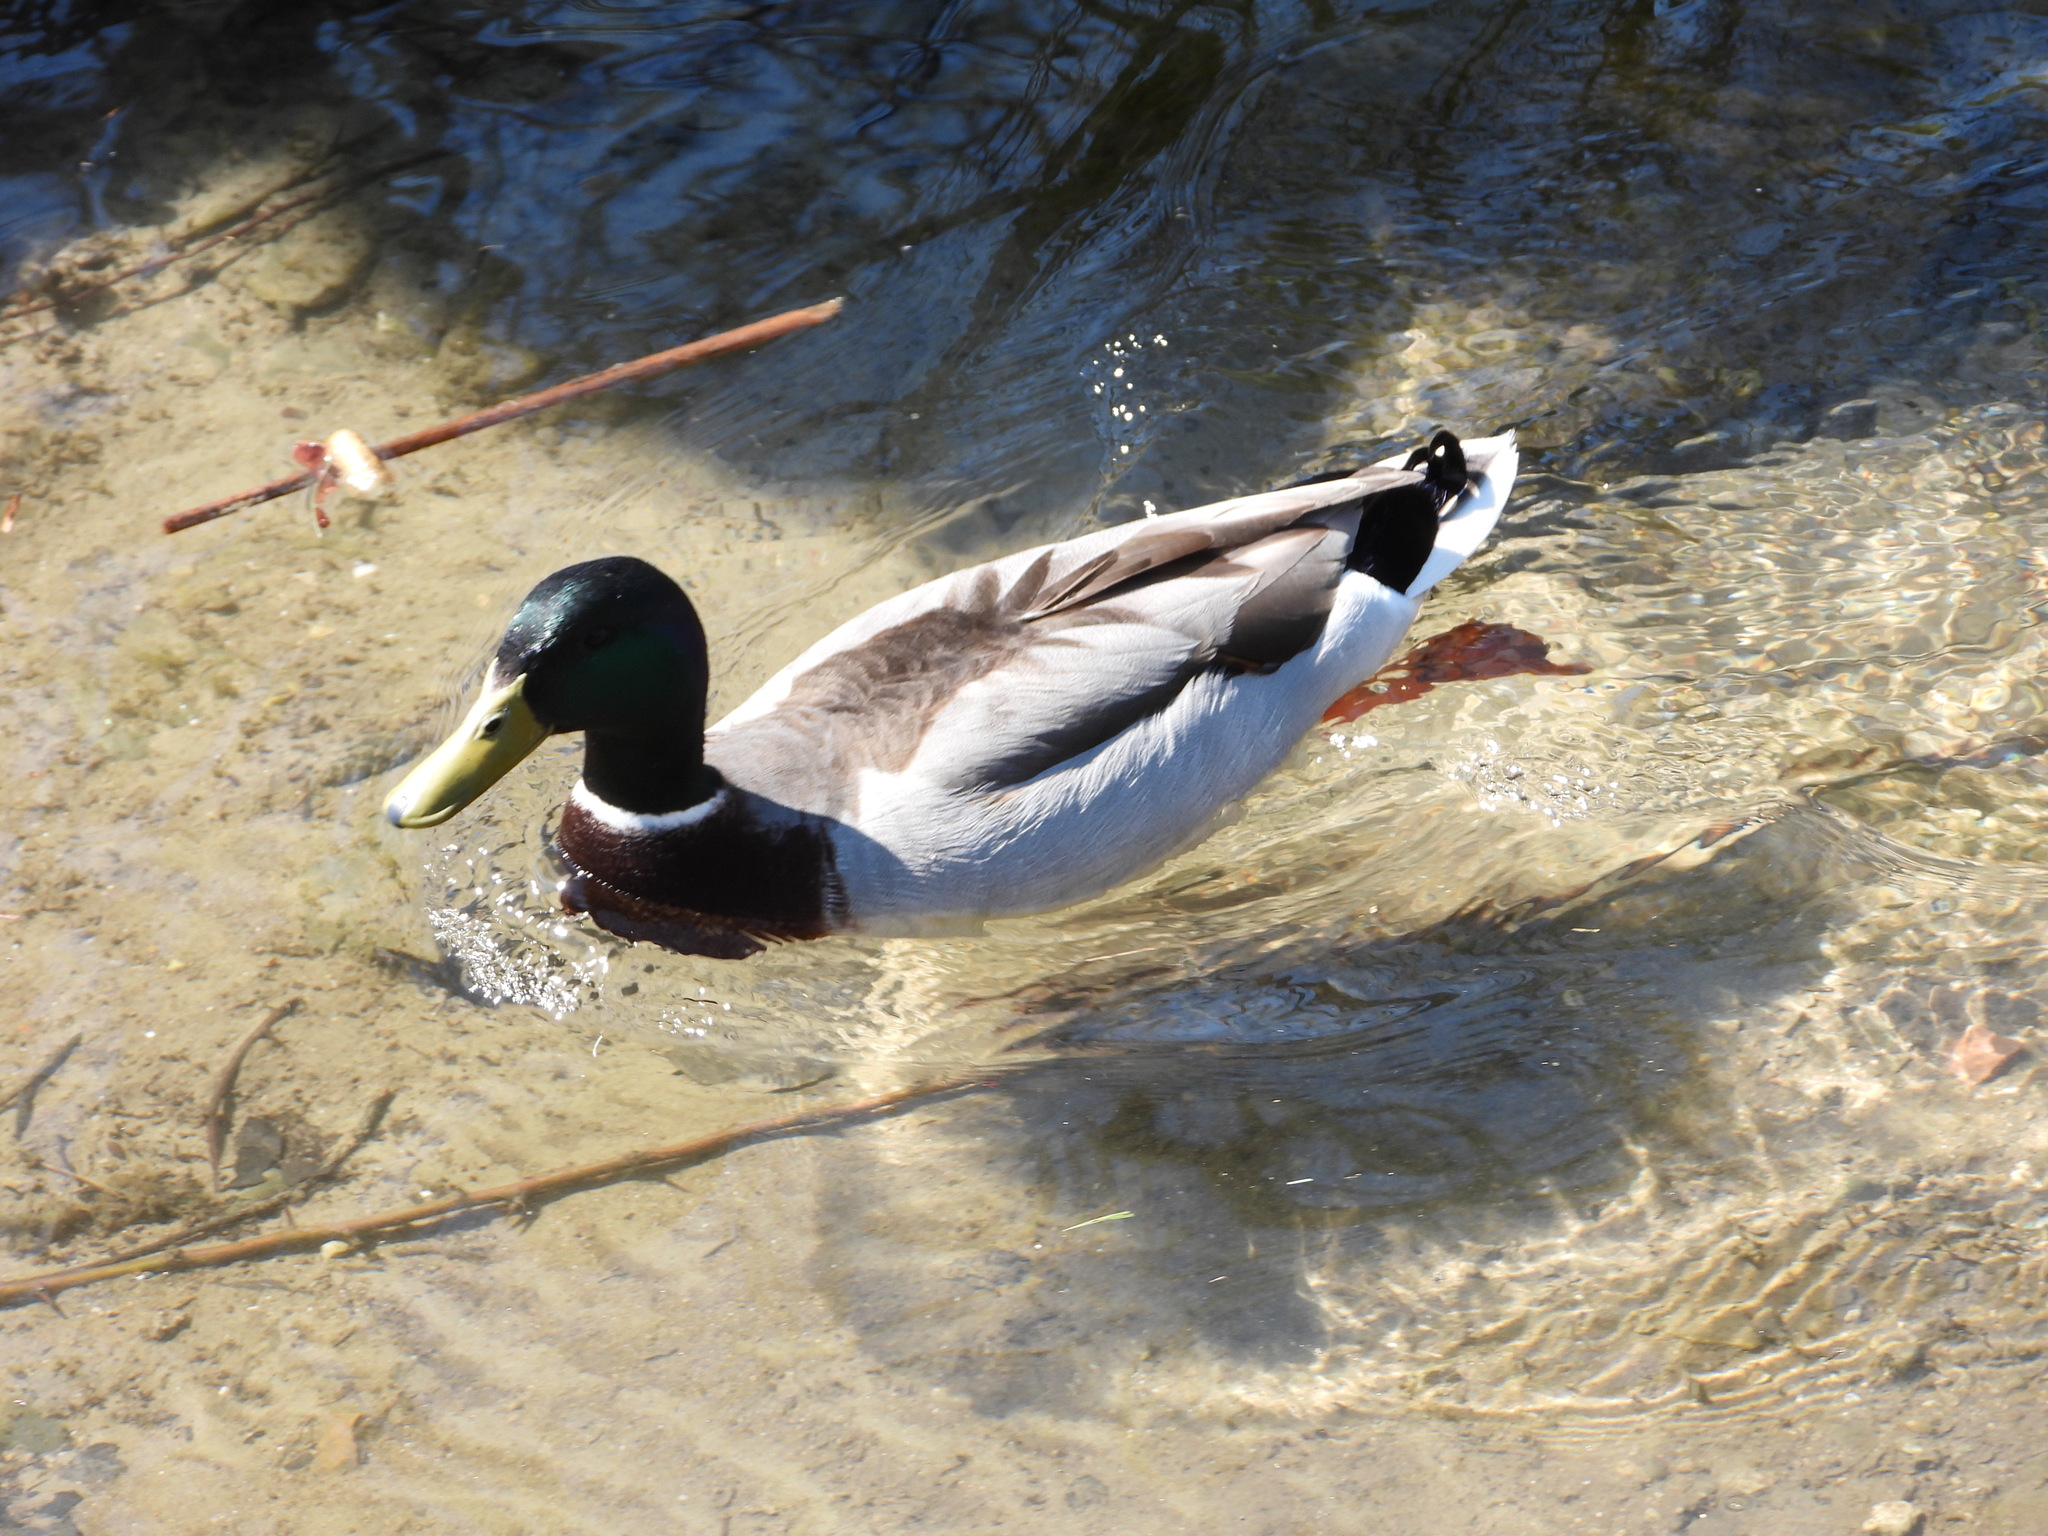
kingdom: Animalia
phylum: Chordata
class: Aves
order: Anseriformes
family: Anatidae
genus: Anas
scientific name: Anas platyrhynchos
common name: Mallard
